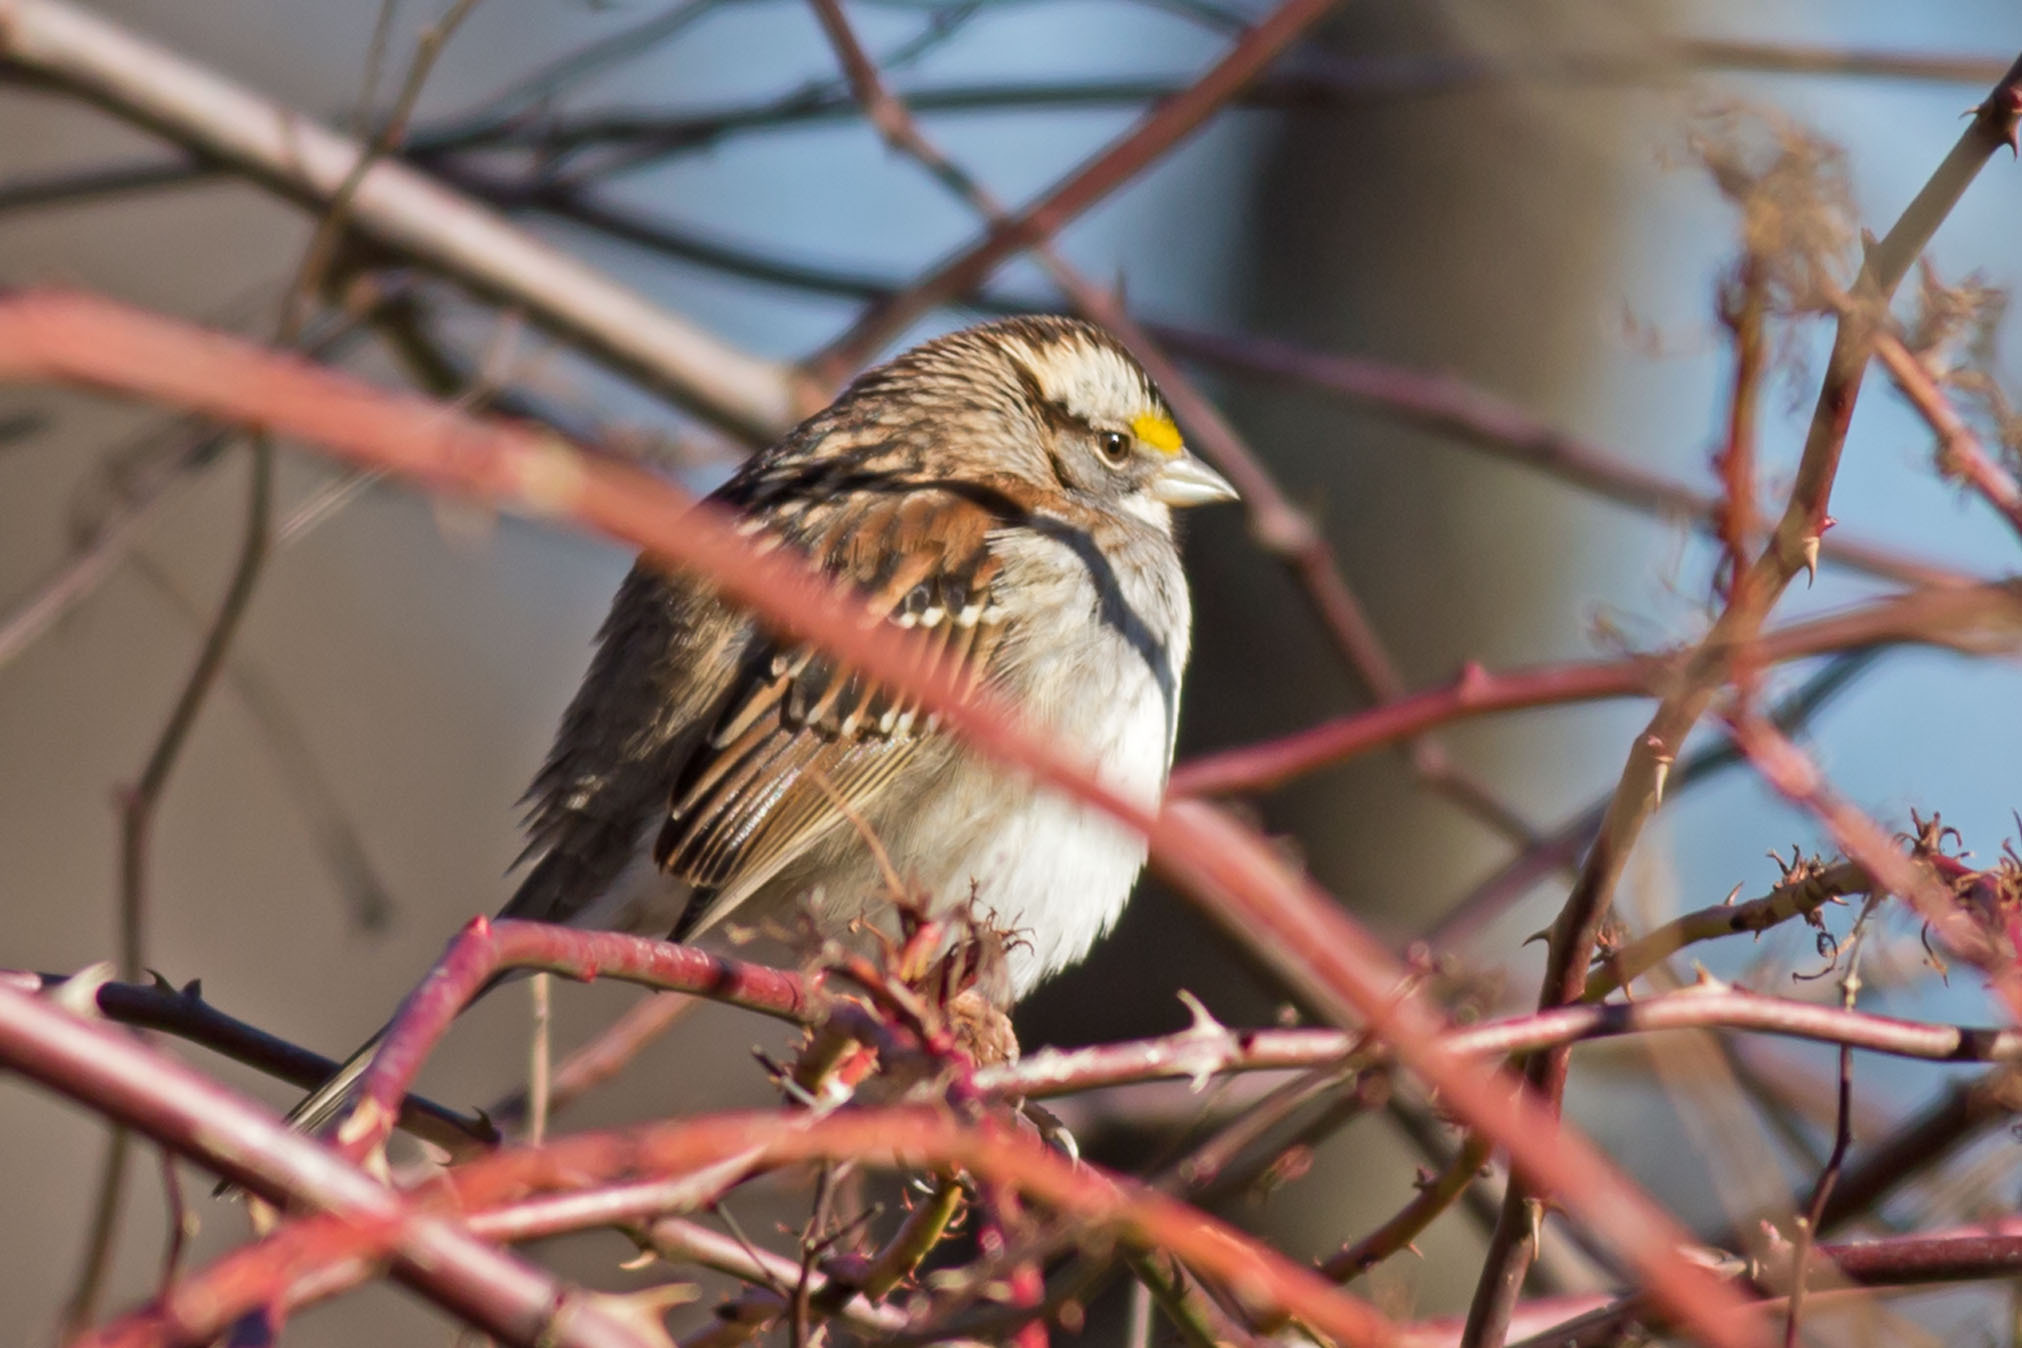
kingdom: Animalia
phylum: Chordata
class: Aves
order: Passeriformes
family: Passerellidae
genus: Zonotrichia
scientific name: Zonotrichia albicollis
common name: White-throated sparrow
